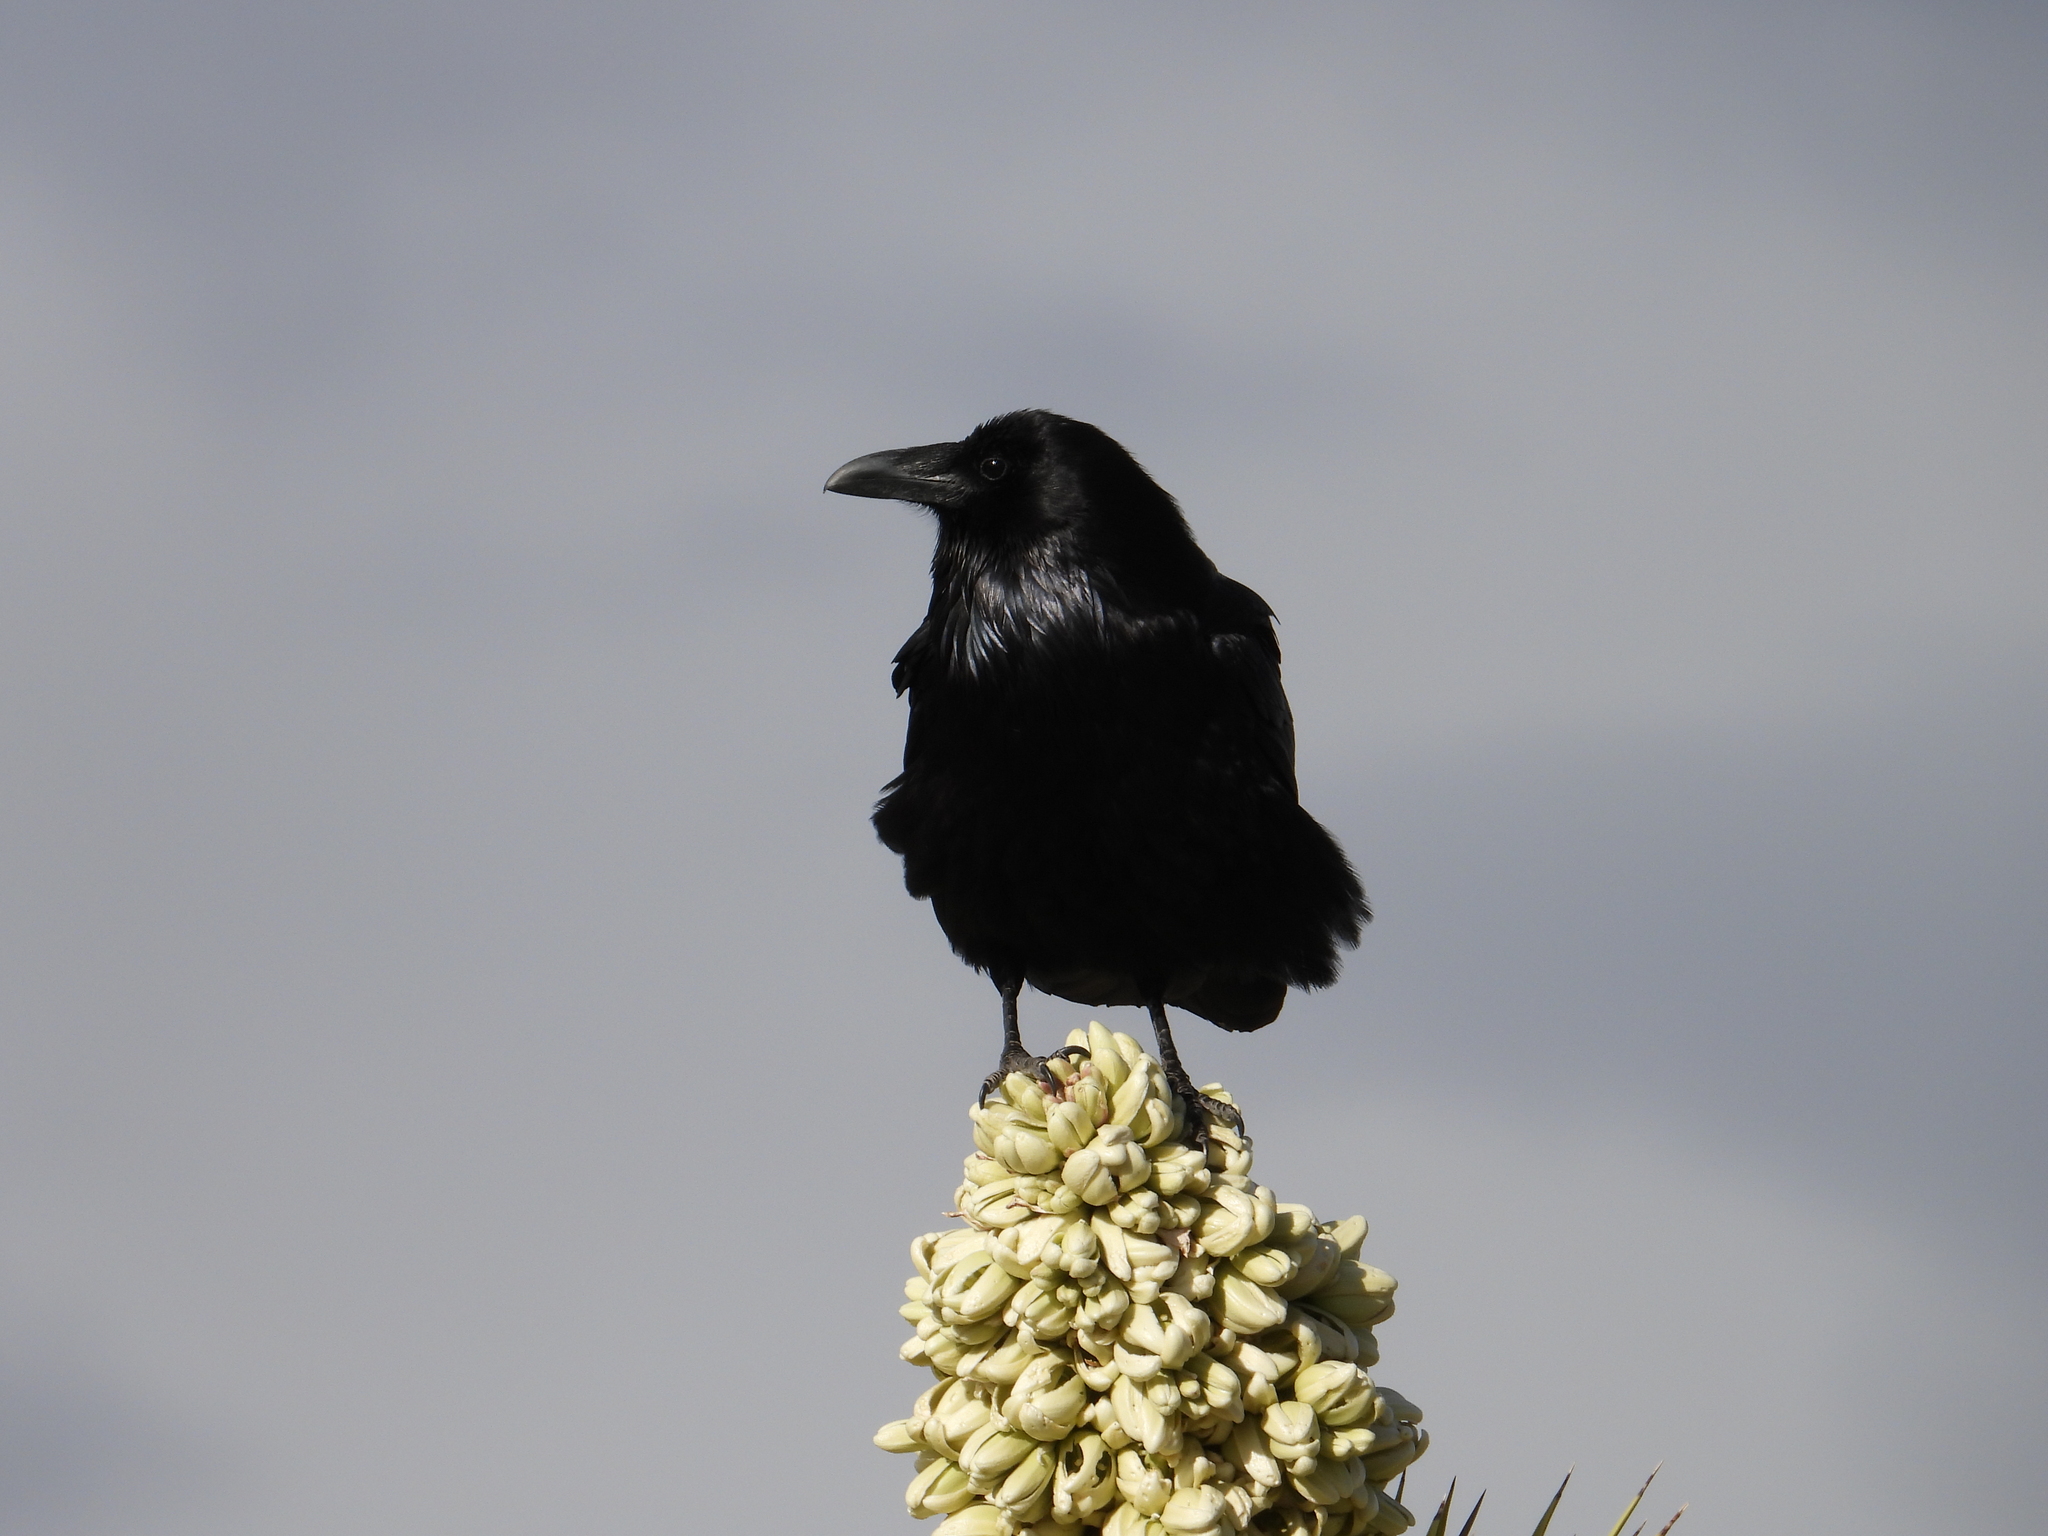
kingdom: Animalia
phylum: Chordata
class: Aves
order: Passeriformes
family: Corvidae
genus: Corvus
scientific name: Corvus corax
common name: Common raven
